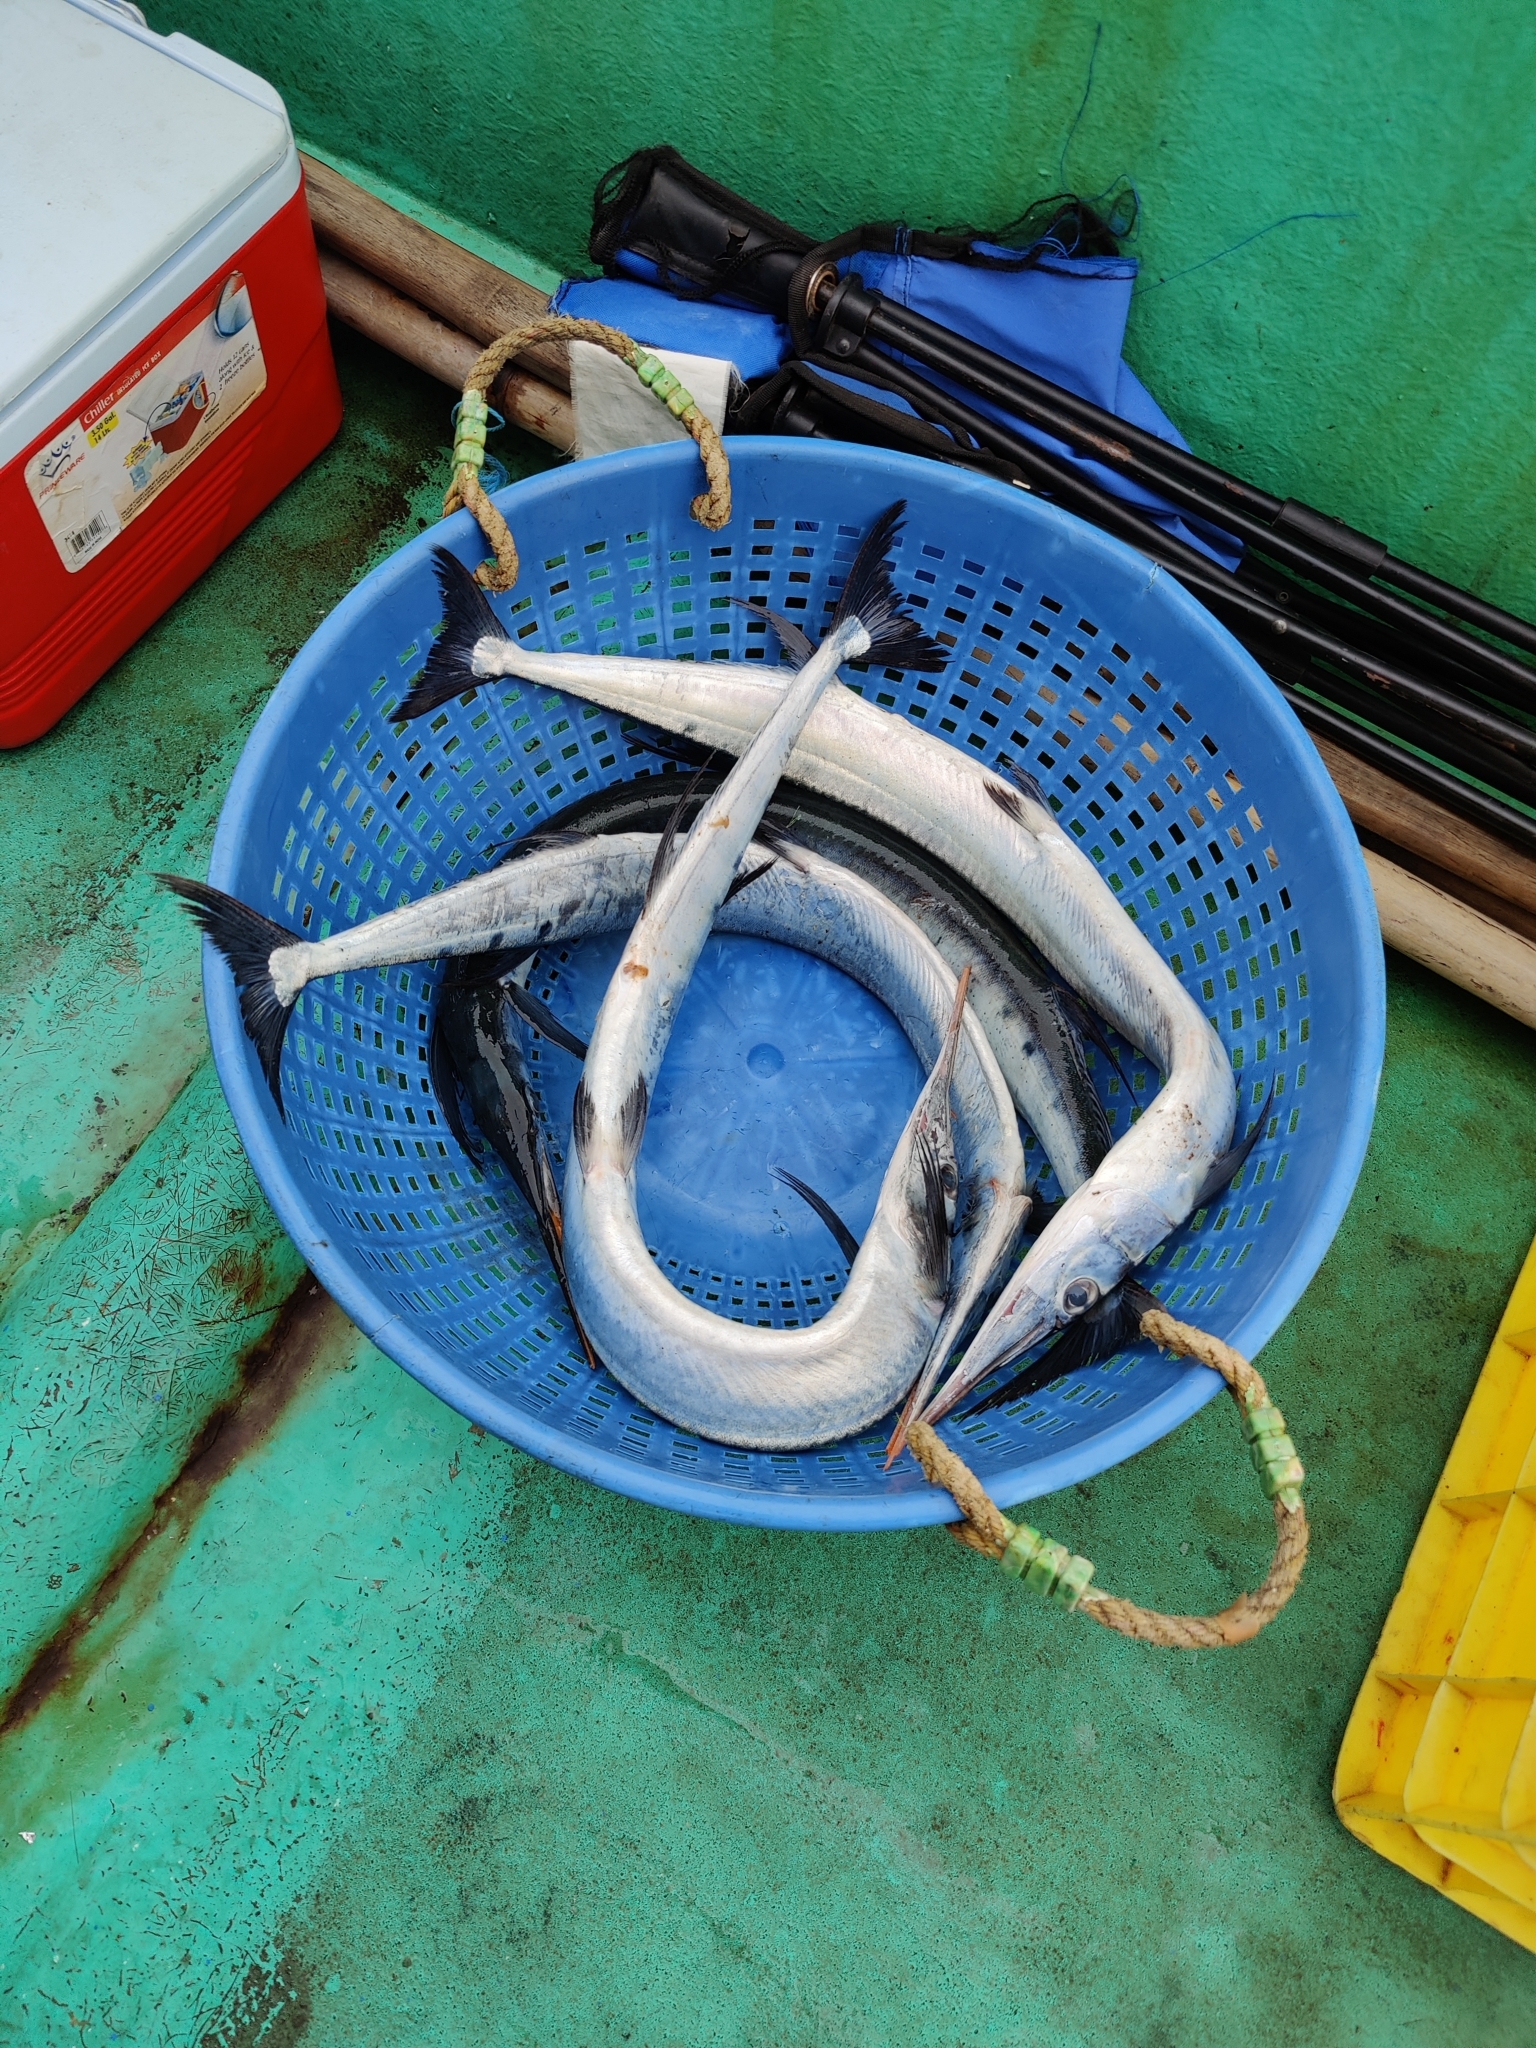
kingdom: Animalia
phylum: Chordata
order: Beloniformes
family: Belonidae
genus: Ablennes
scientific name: Ablennes hians
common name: Flat needlefish
